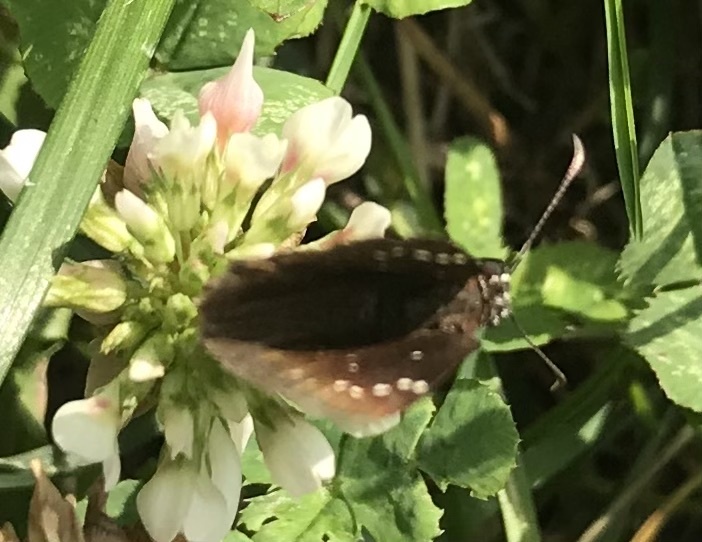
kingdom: Animalia
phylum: Arthropoda
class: Insecta
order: Lepidoptera
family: Hesperiidae
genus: Pholisora
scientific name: Pholisora catullus
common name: Common sootywing
